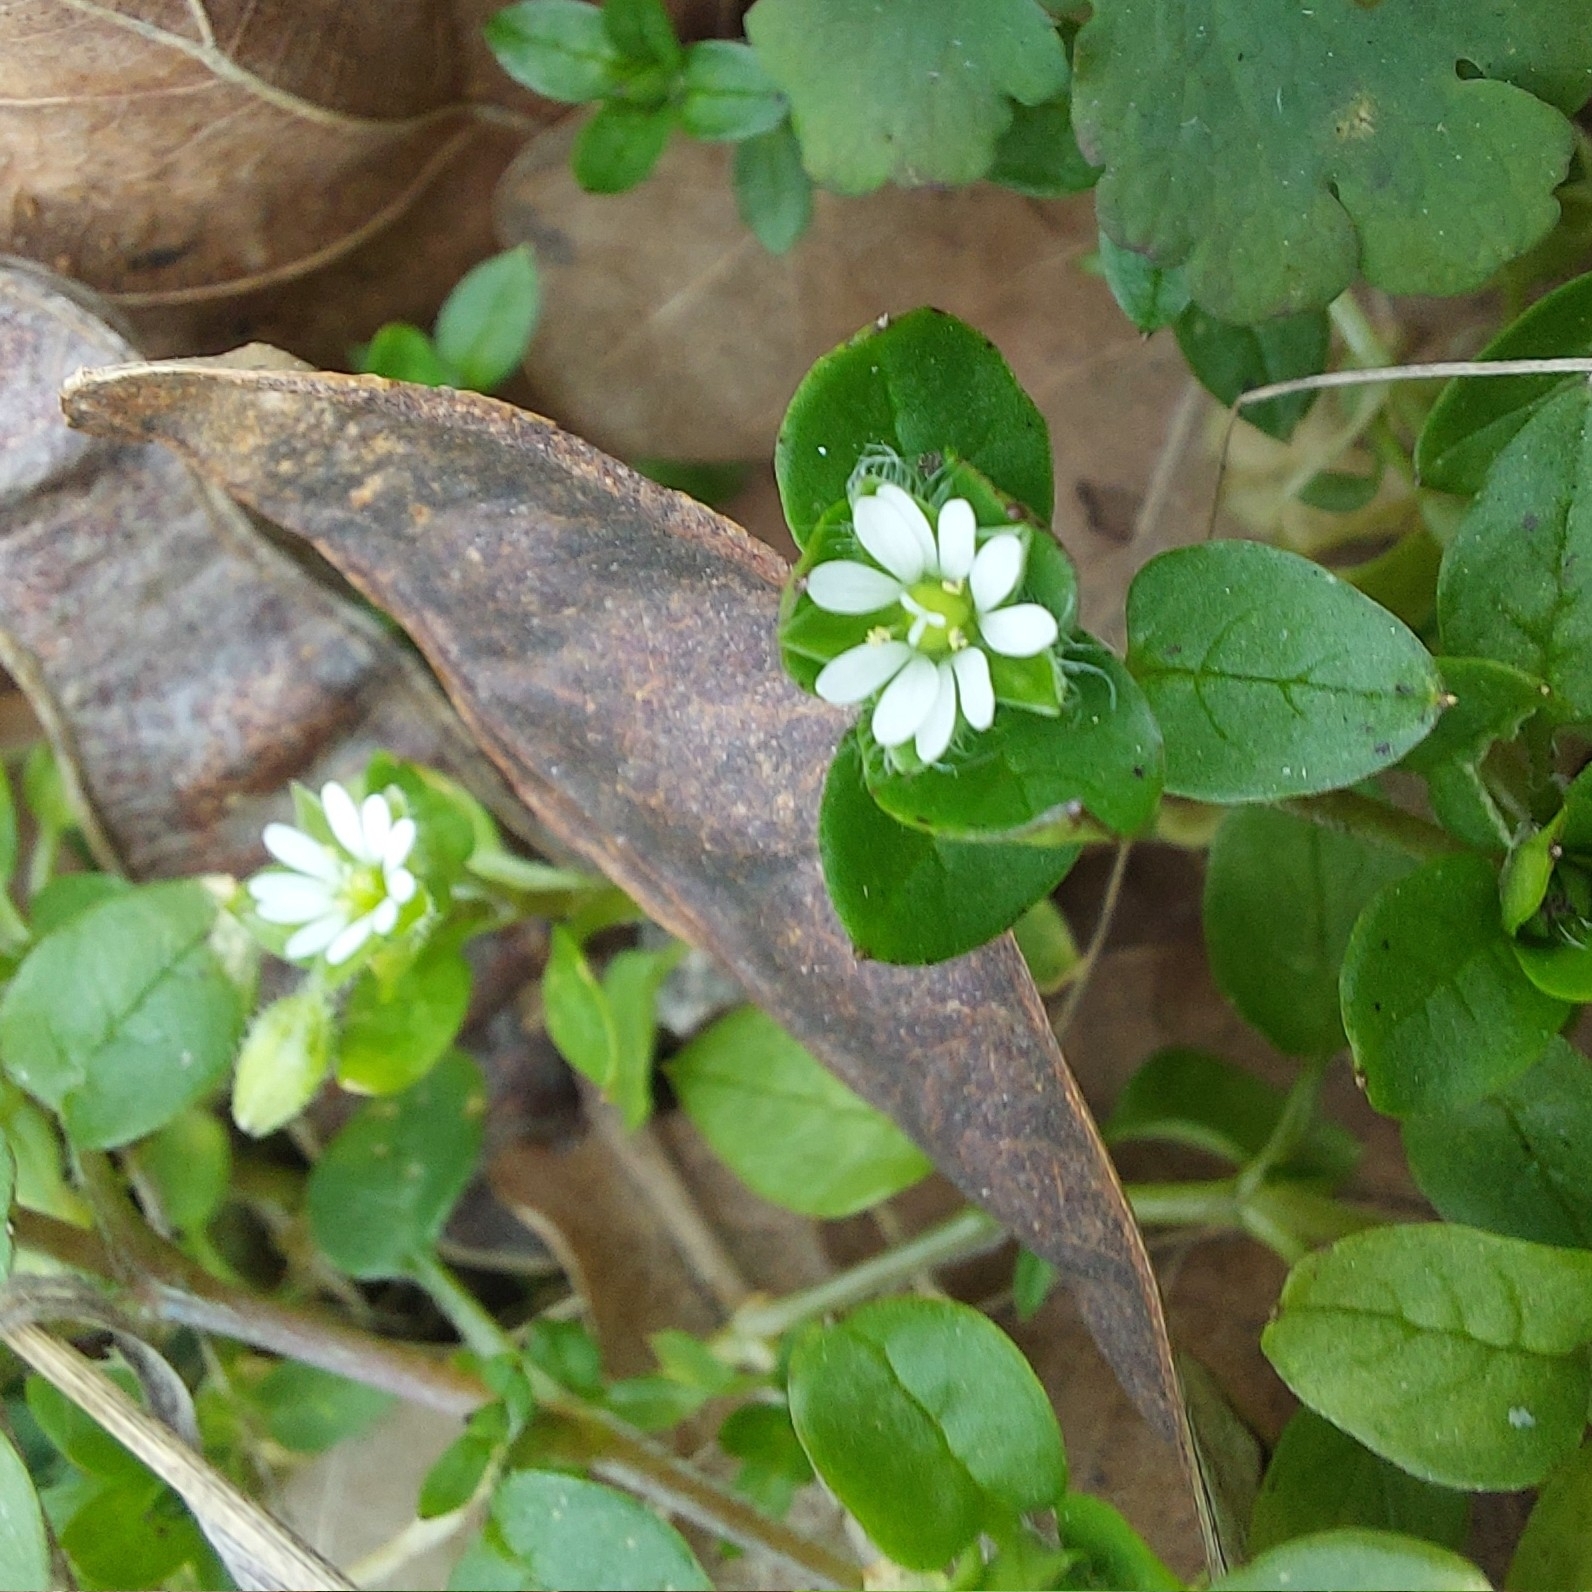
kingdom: Plantae
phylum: Tracheophyta
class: Magnoliopsida
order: Caryophyllales
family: Caryophyllaceae
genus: Stellaria
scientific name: Stellaria media
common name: Common chickweed
